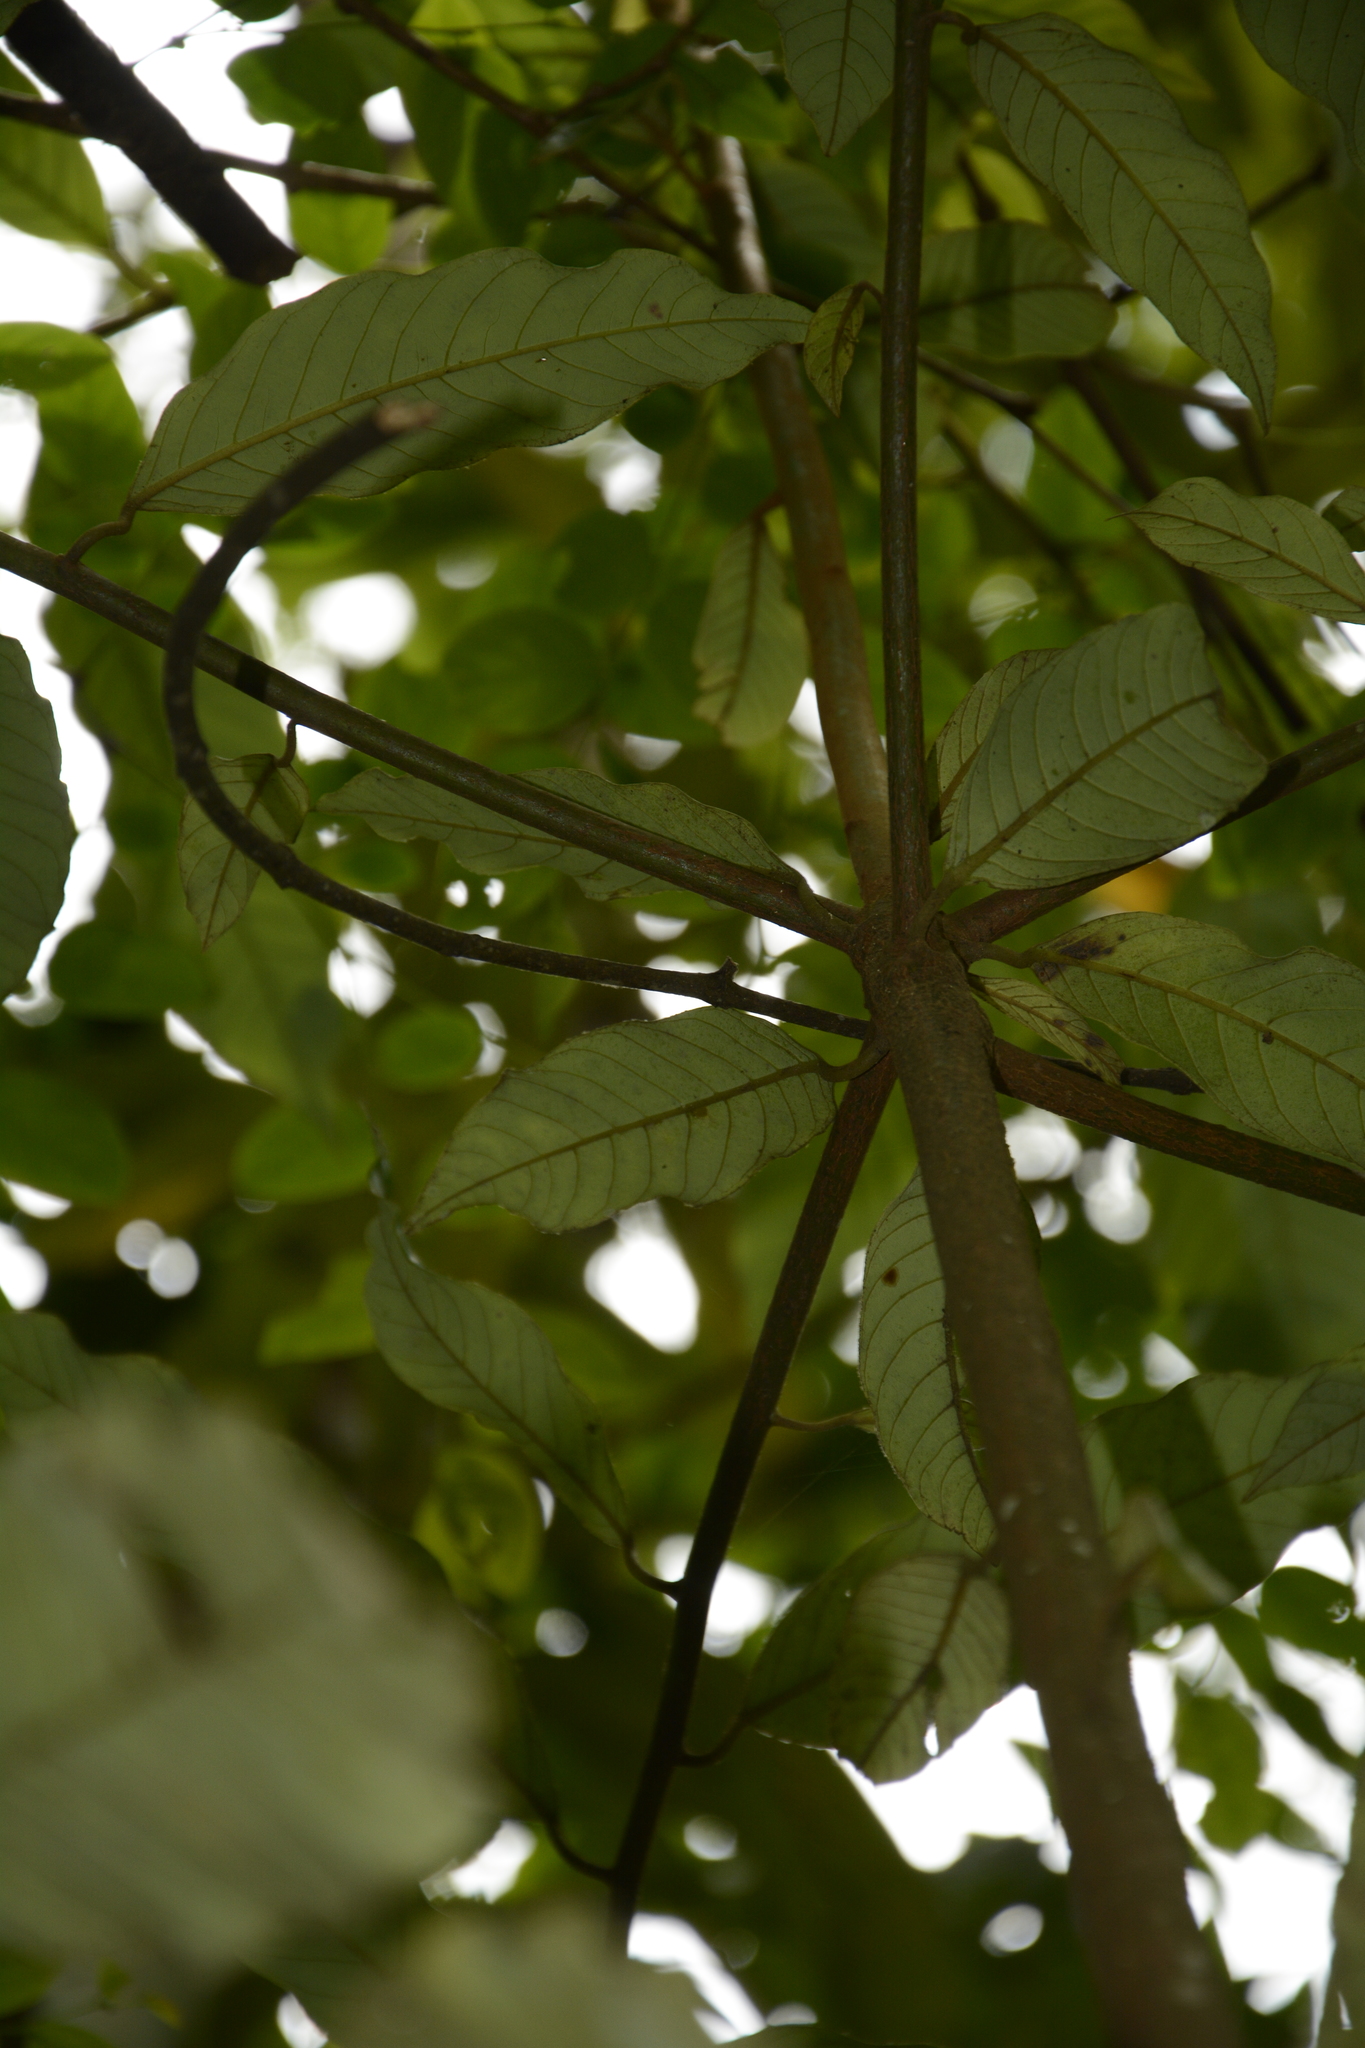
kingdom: Plantae
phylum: Tracheophyta
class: Magnoliopsida
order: Magnoliales
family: Myristicaceae
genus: Knema
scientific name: Knema attenuata
